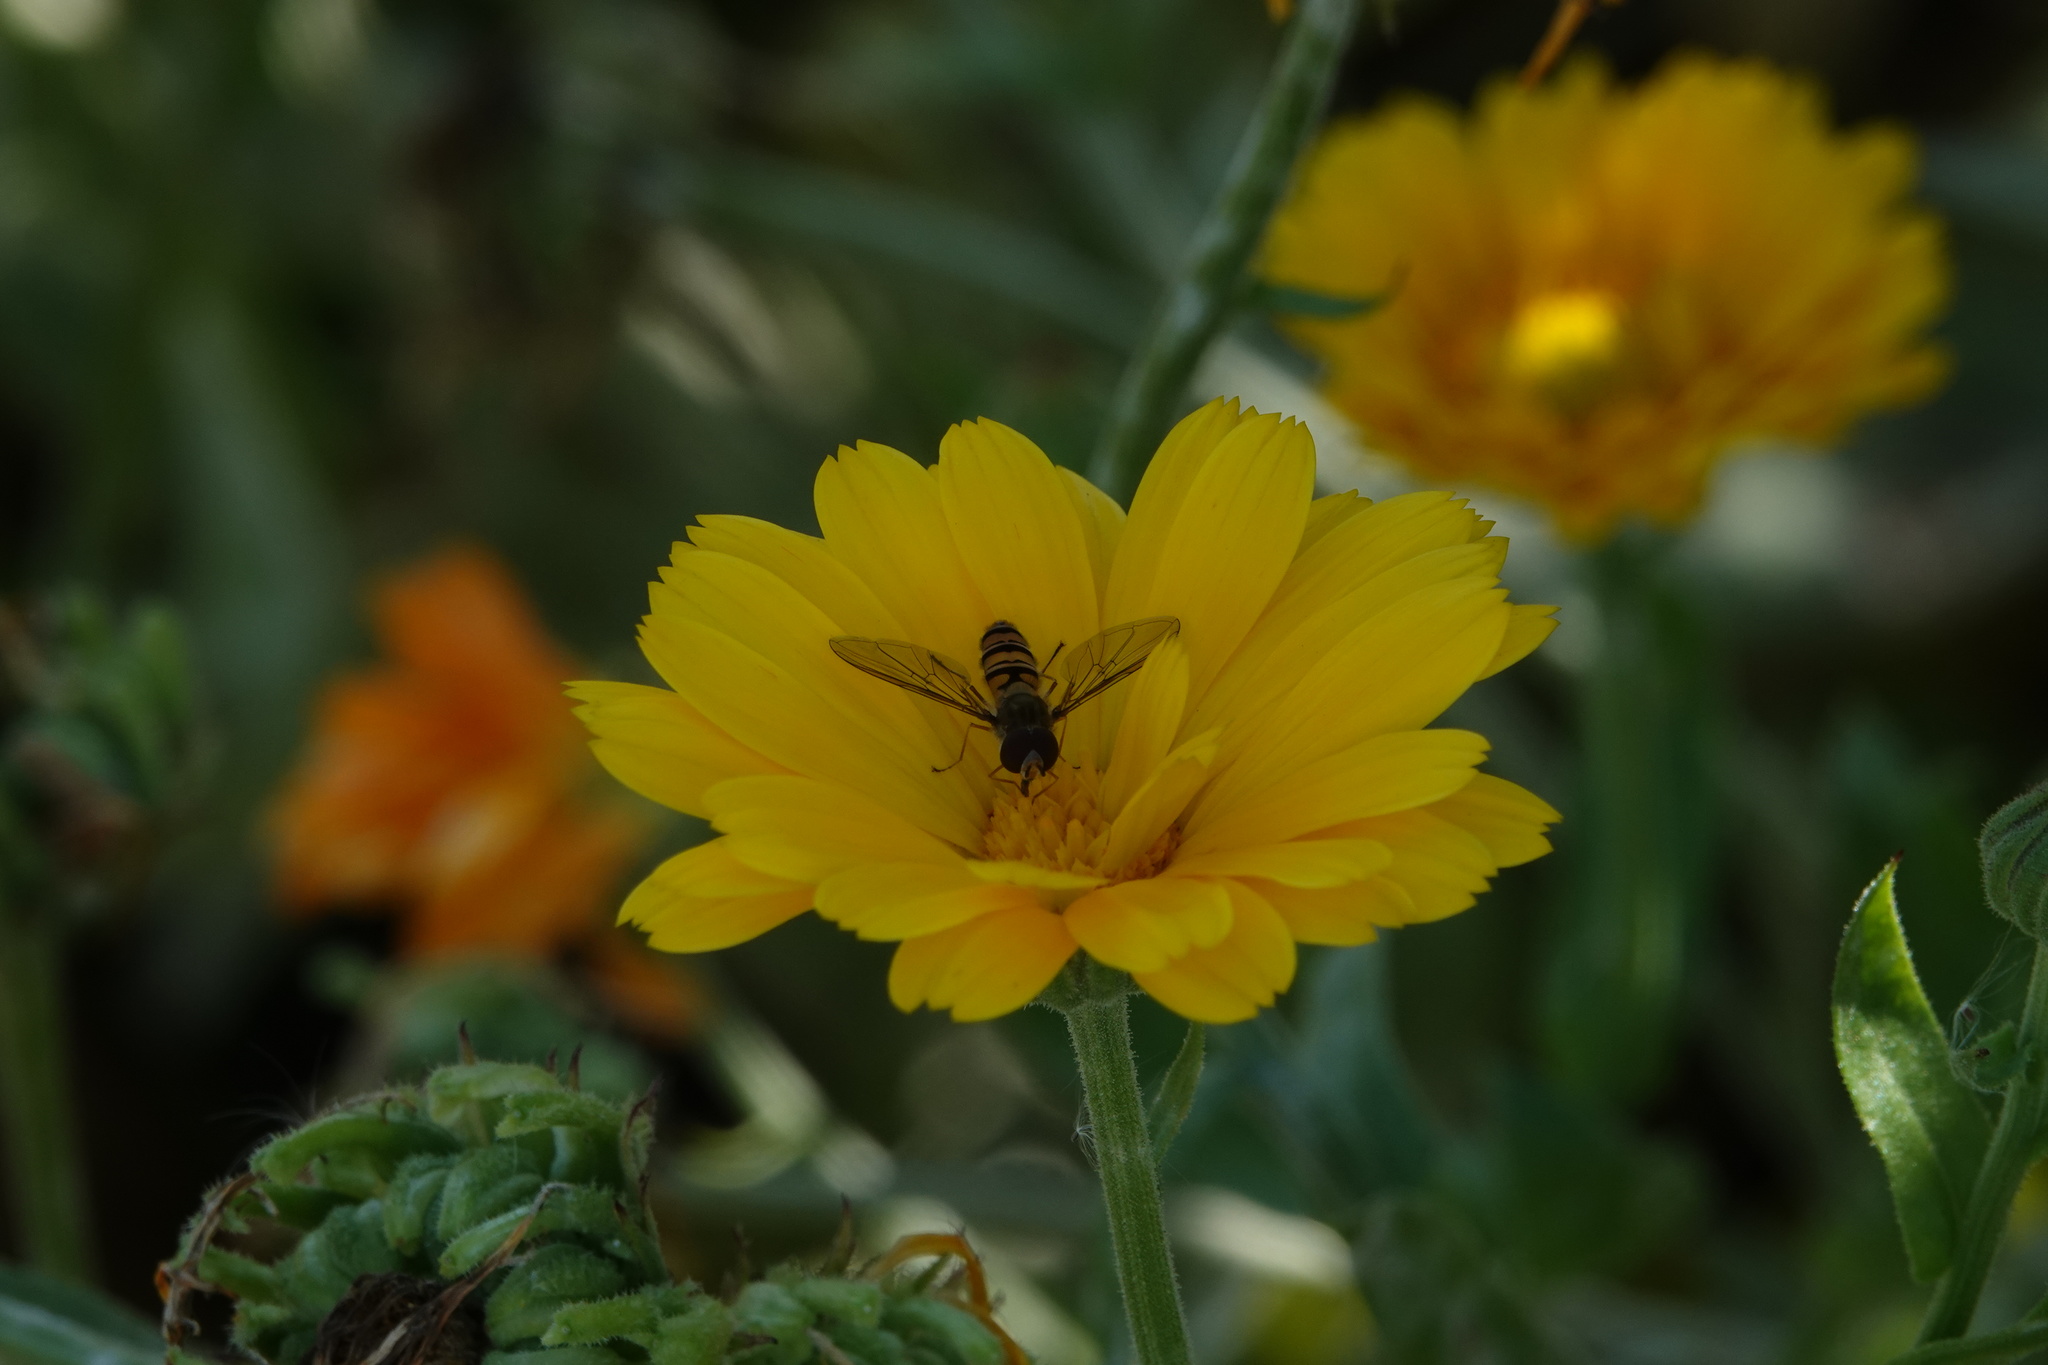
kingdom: Animalia
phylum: Arthropoda
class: Insecta
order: Diptera
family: Syrphidae
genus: Episyrphus
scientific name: Episyrphus balteatus
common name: Marmalade hoverfly
